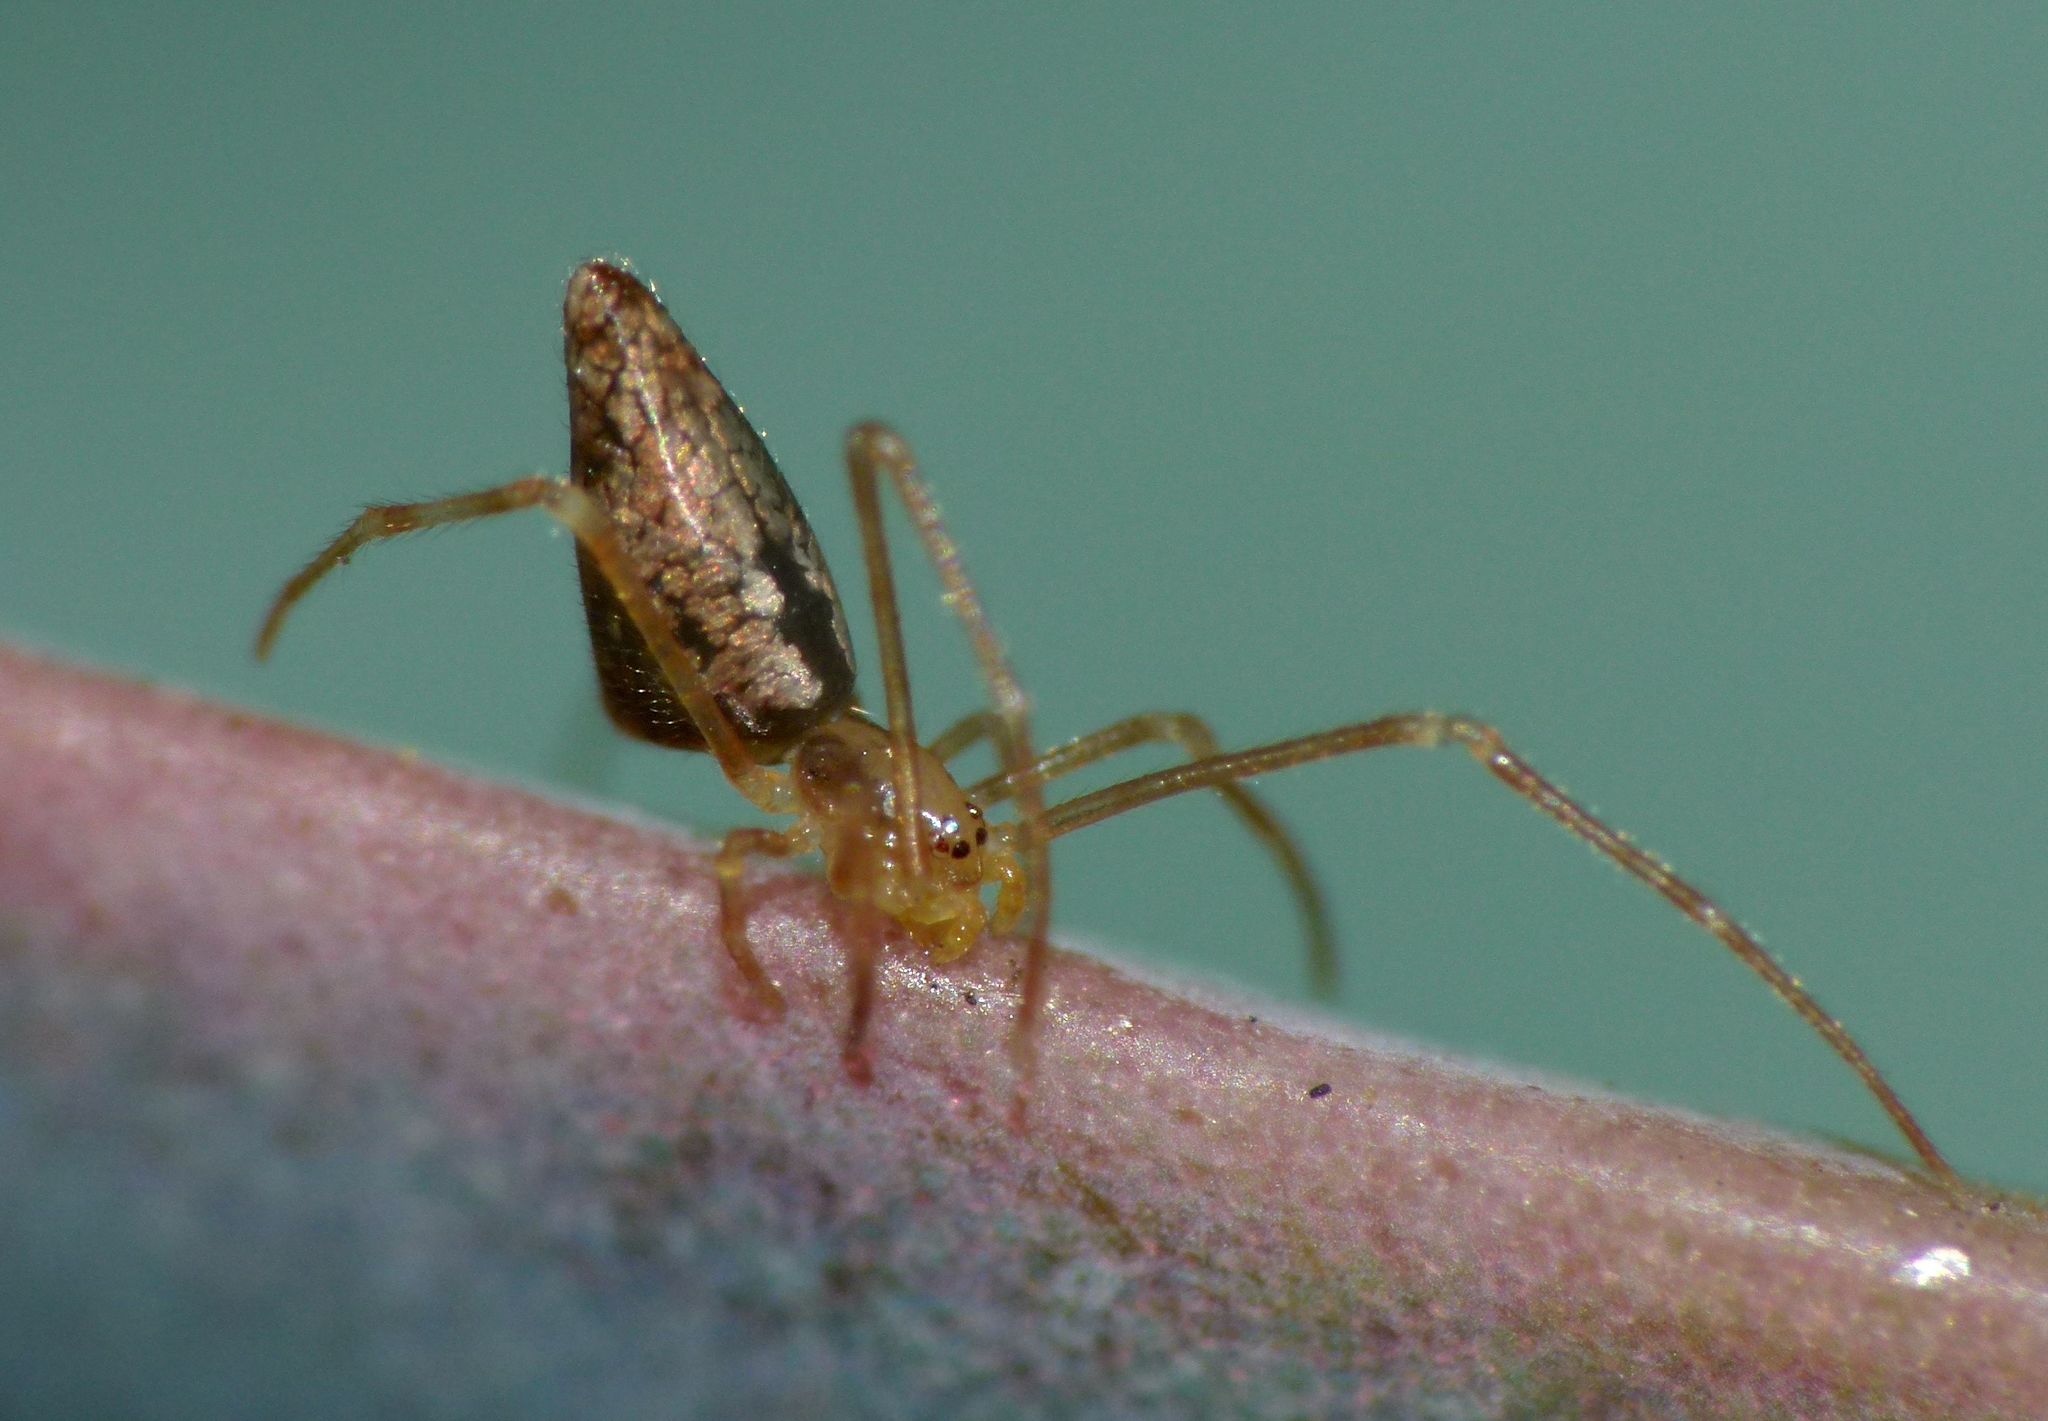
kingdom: Animalia
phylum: Arthropoda
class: Arachnida
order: Araneae
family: Theridiidae
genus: Rhomphaea
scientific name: Rhomphaea urquharti
